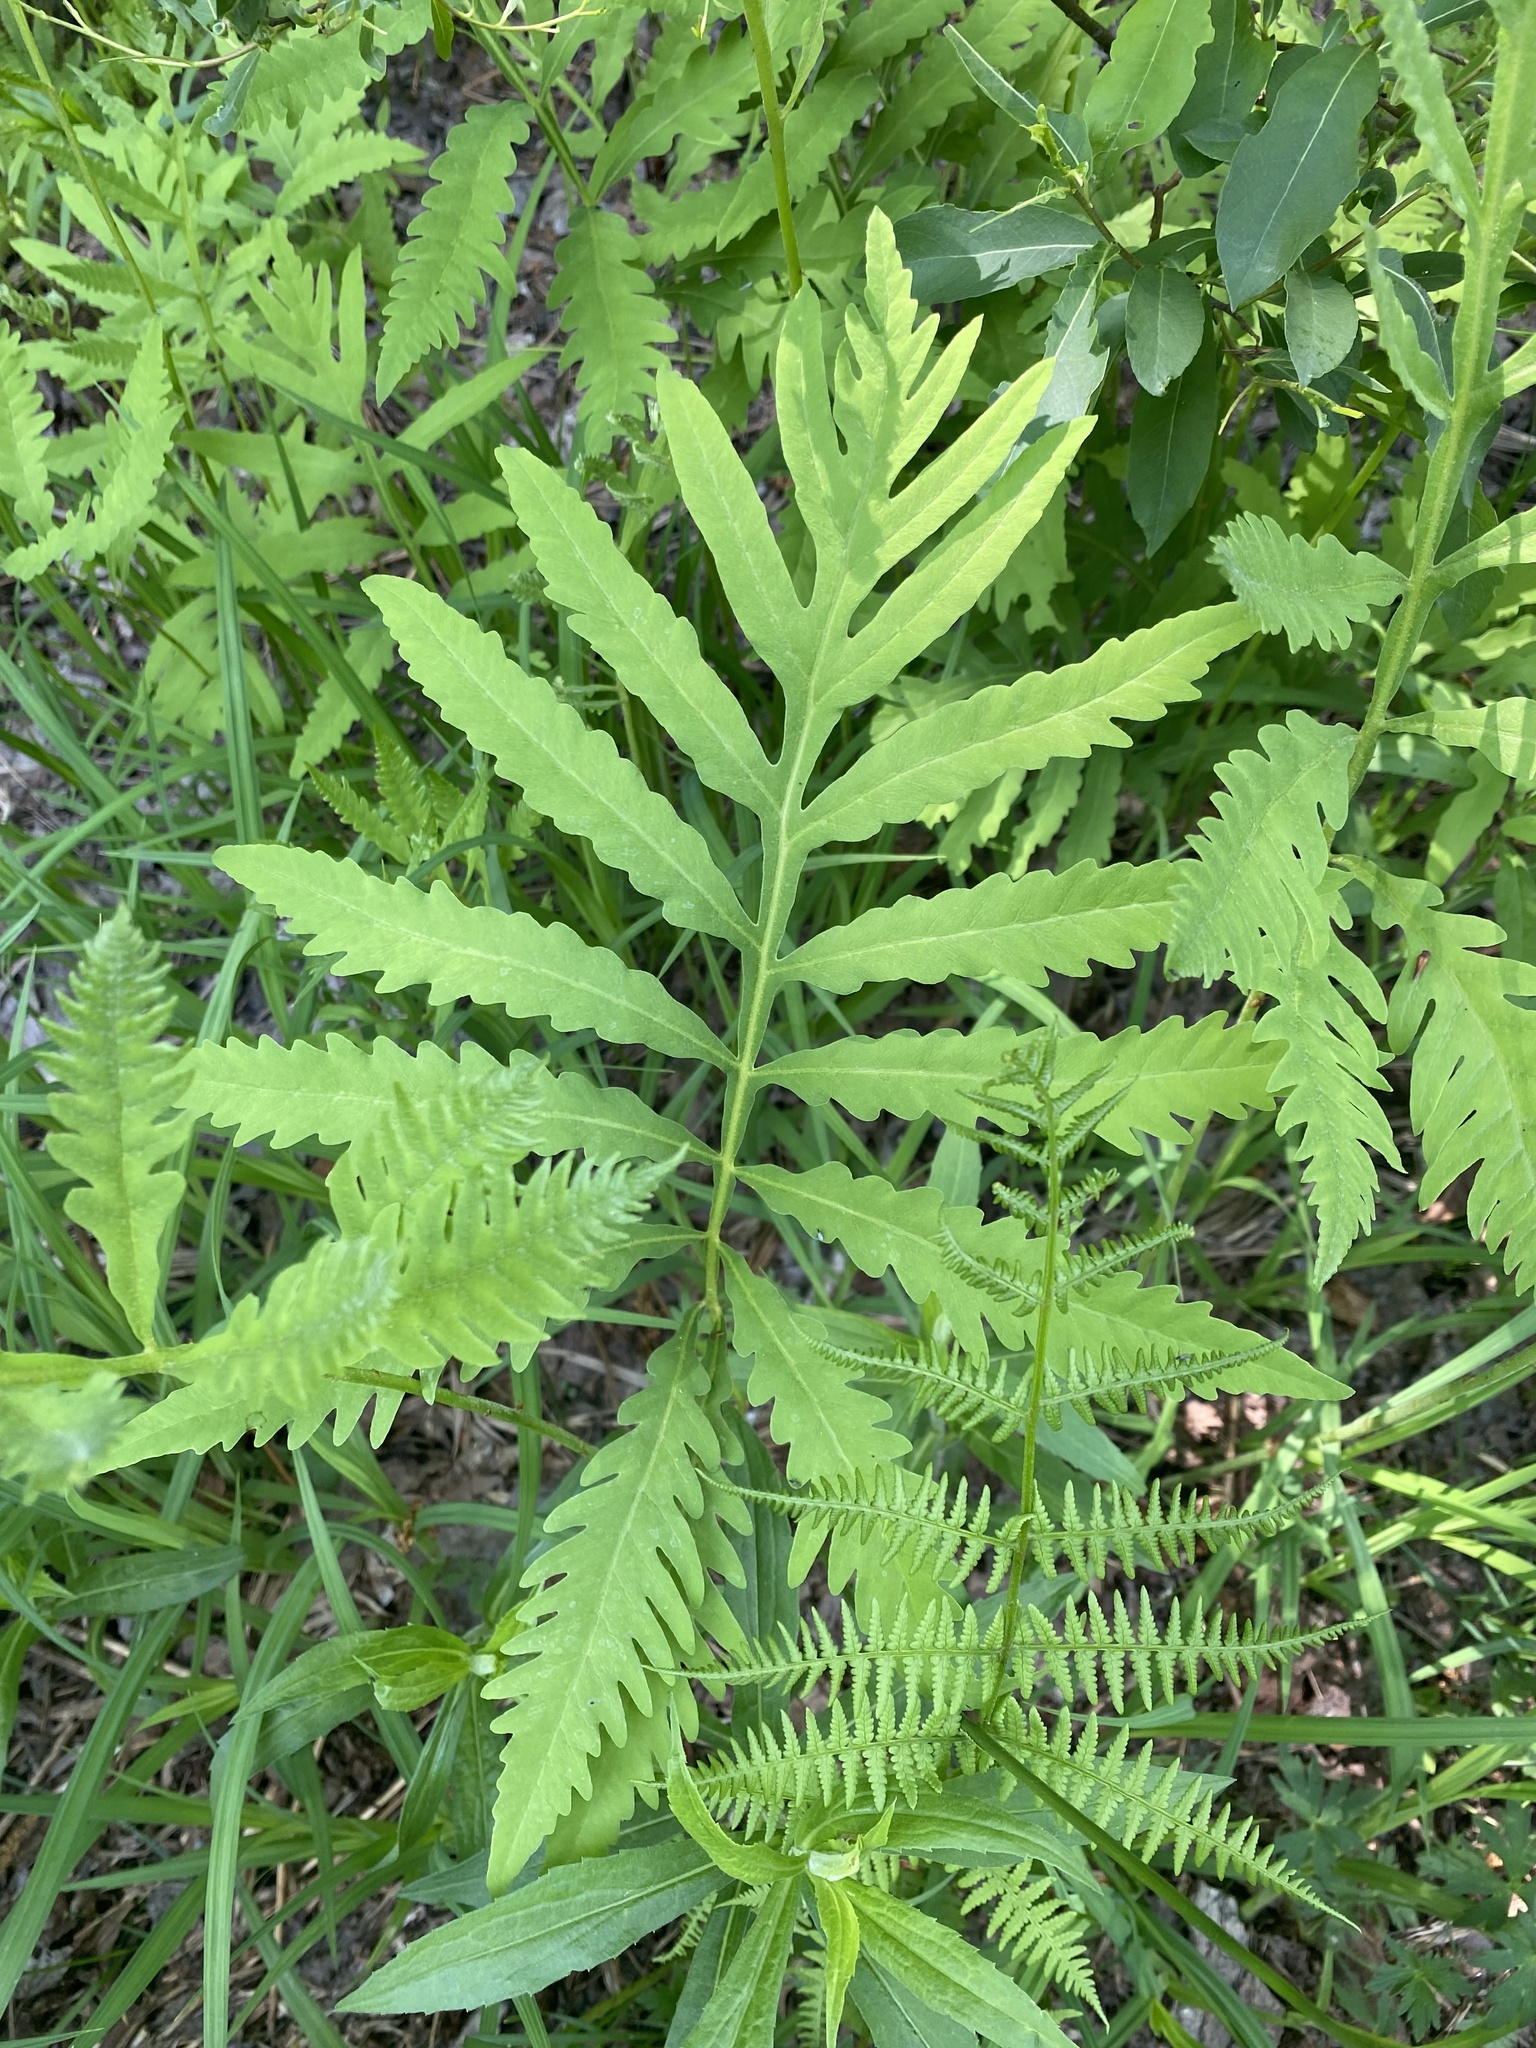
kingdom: Plantae
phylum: Tracheophyta
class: Polypodiopsida
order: Polypodiales
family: Onocleaceae
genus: Onoclea
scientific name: Onoclea sensibilis
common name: Sensitive fern
